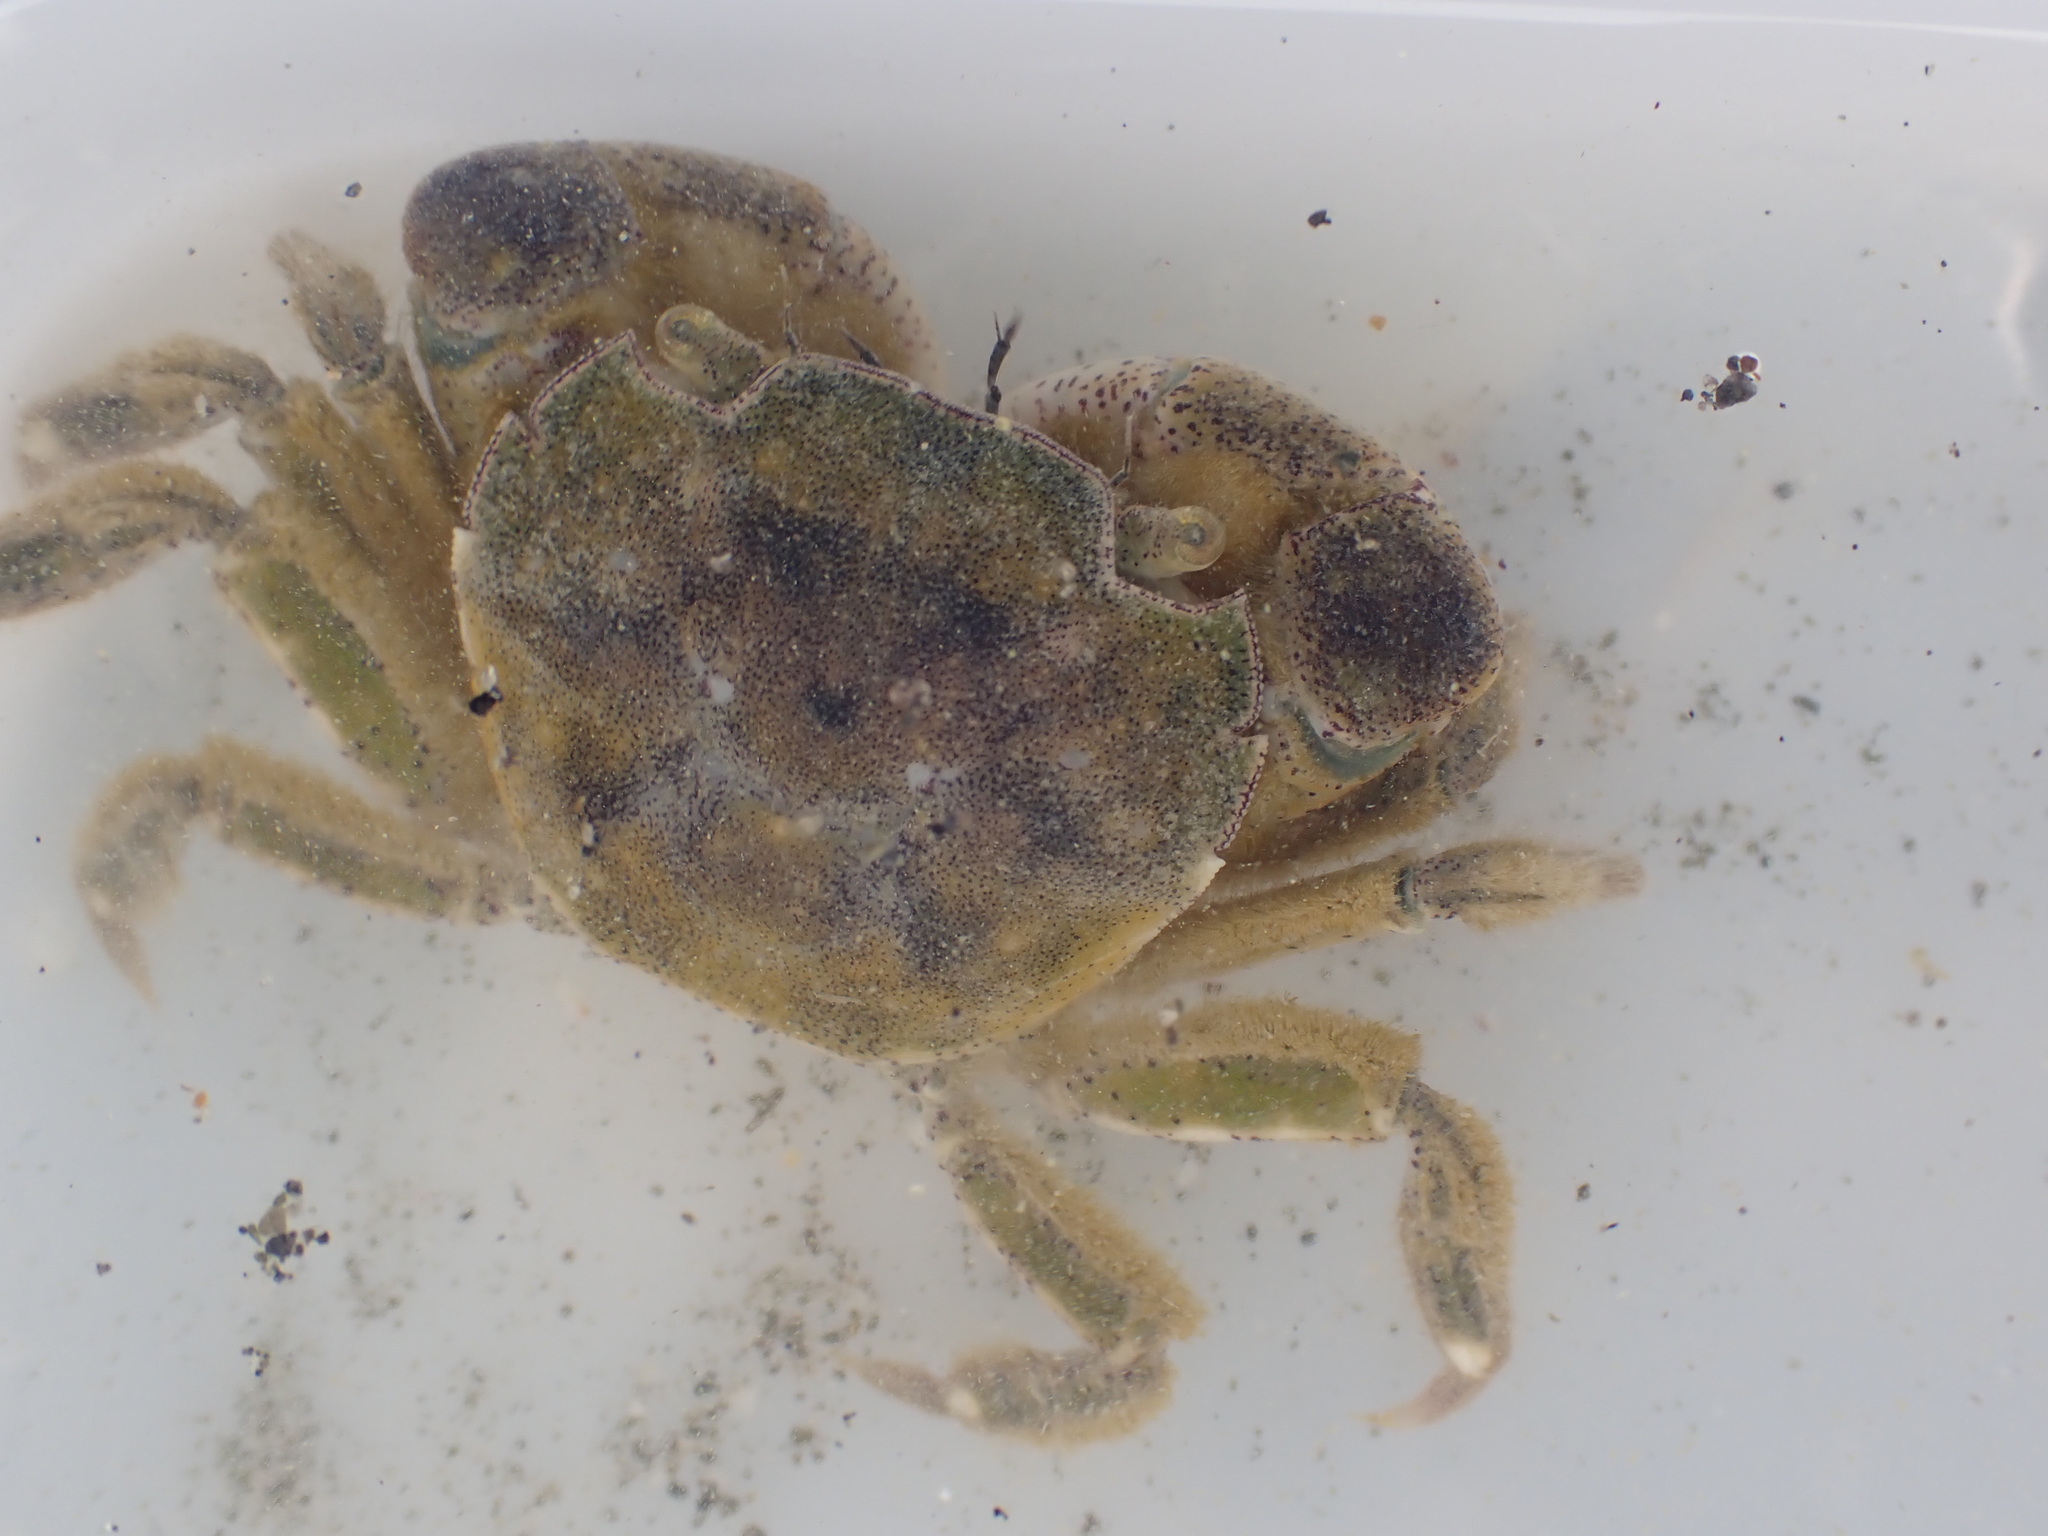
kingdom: Animalia
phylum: Arthropoda
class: Malacostraca
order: Decapoda
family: Varunidae
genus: Hemigrapsus
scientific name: Hemigrapsus crenulatus
